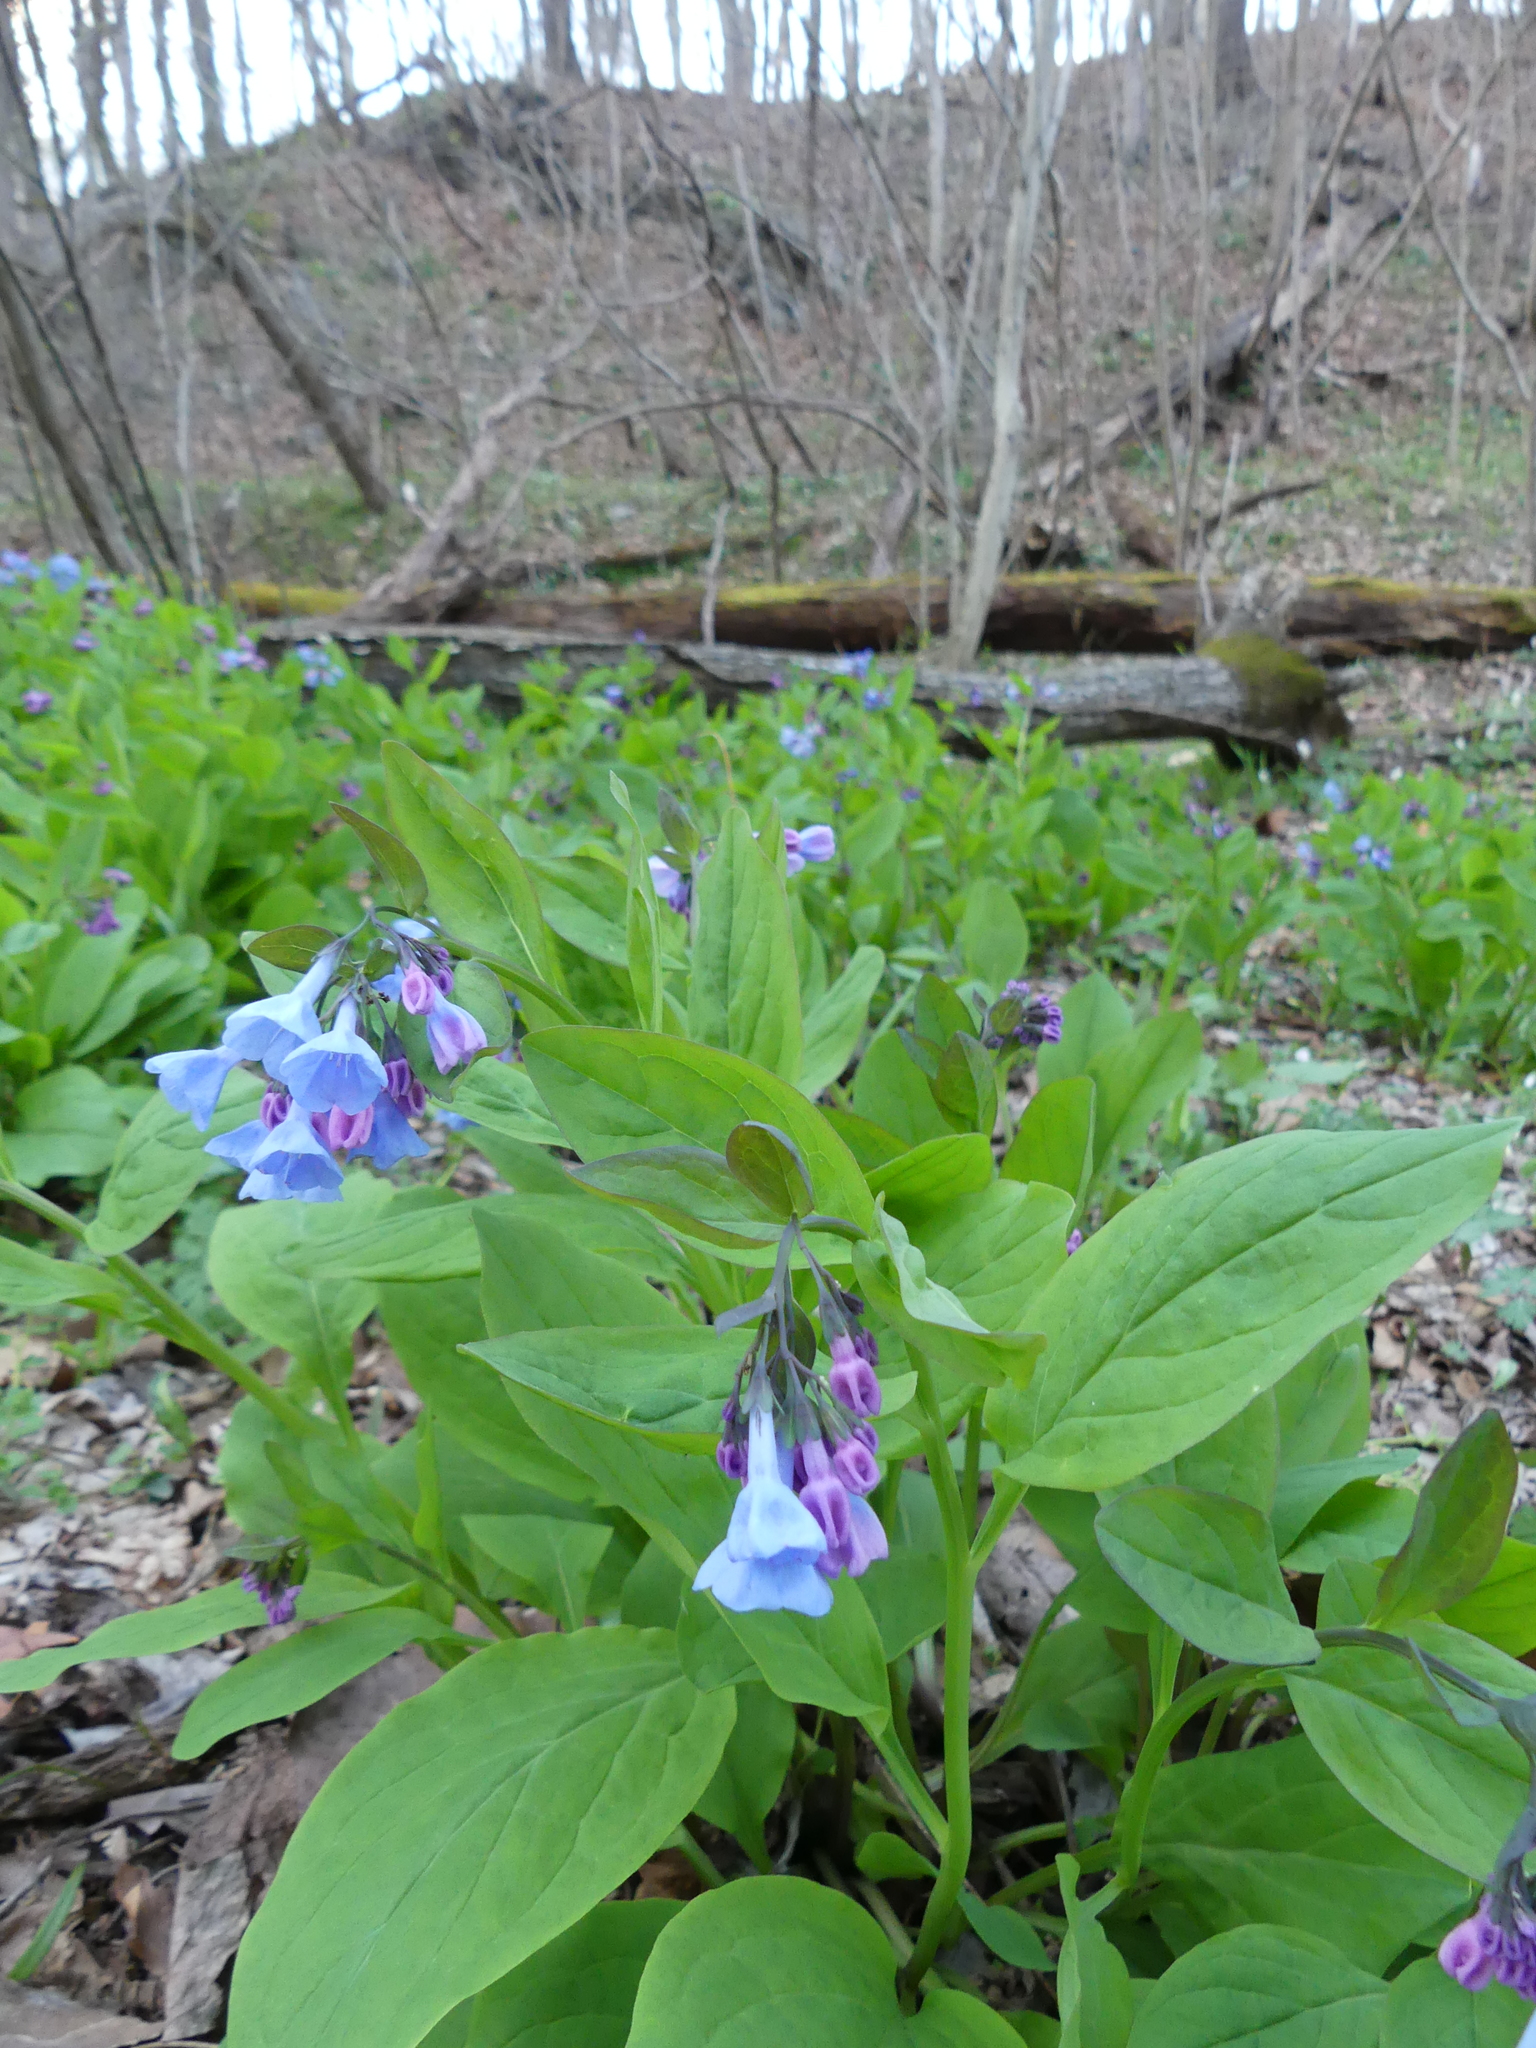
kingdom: Plantae
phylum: Tracheophyta
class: Magnoliopsida
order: Boraginales
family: Boraginaceae
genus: Mertensia
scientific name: Mertensia virginica
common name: Virginia bluebells
